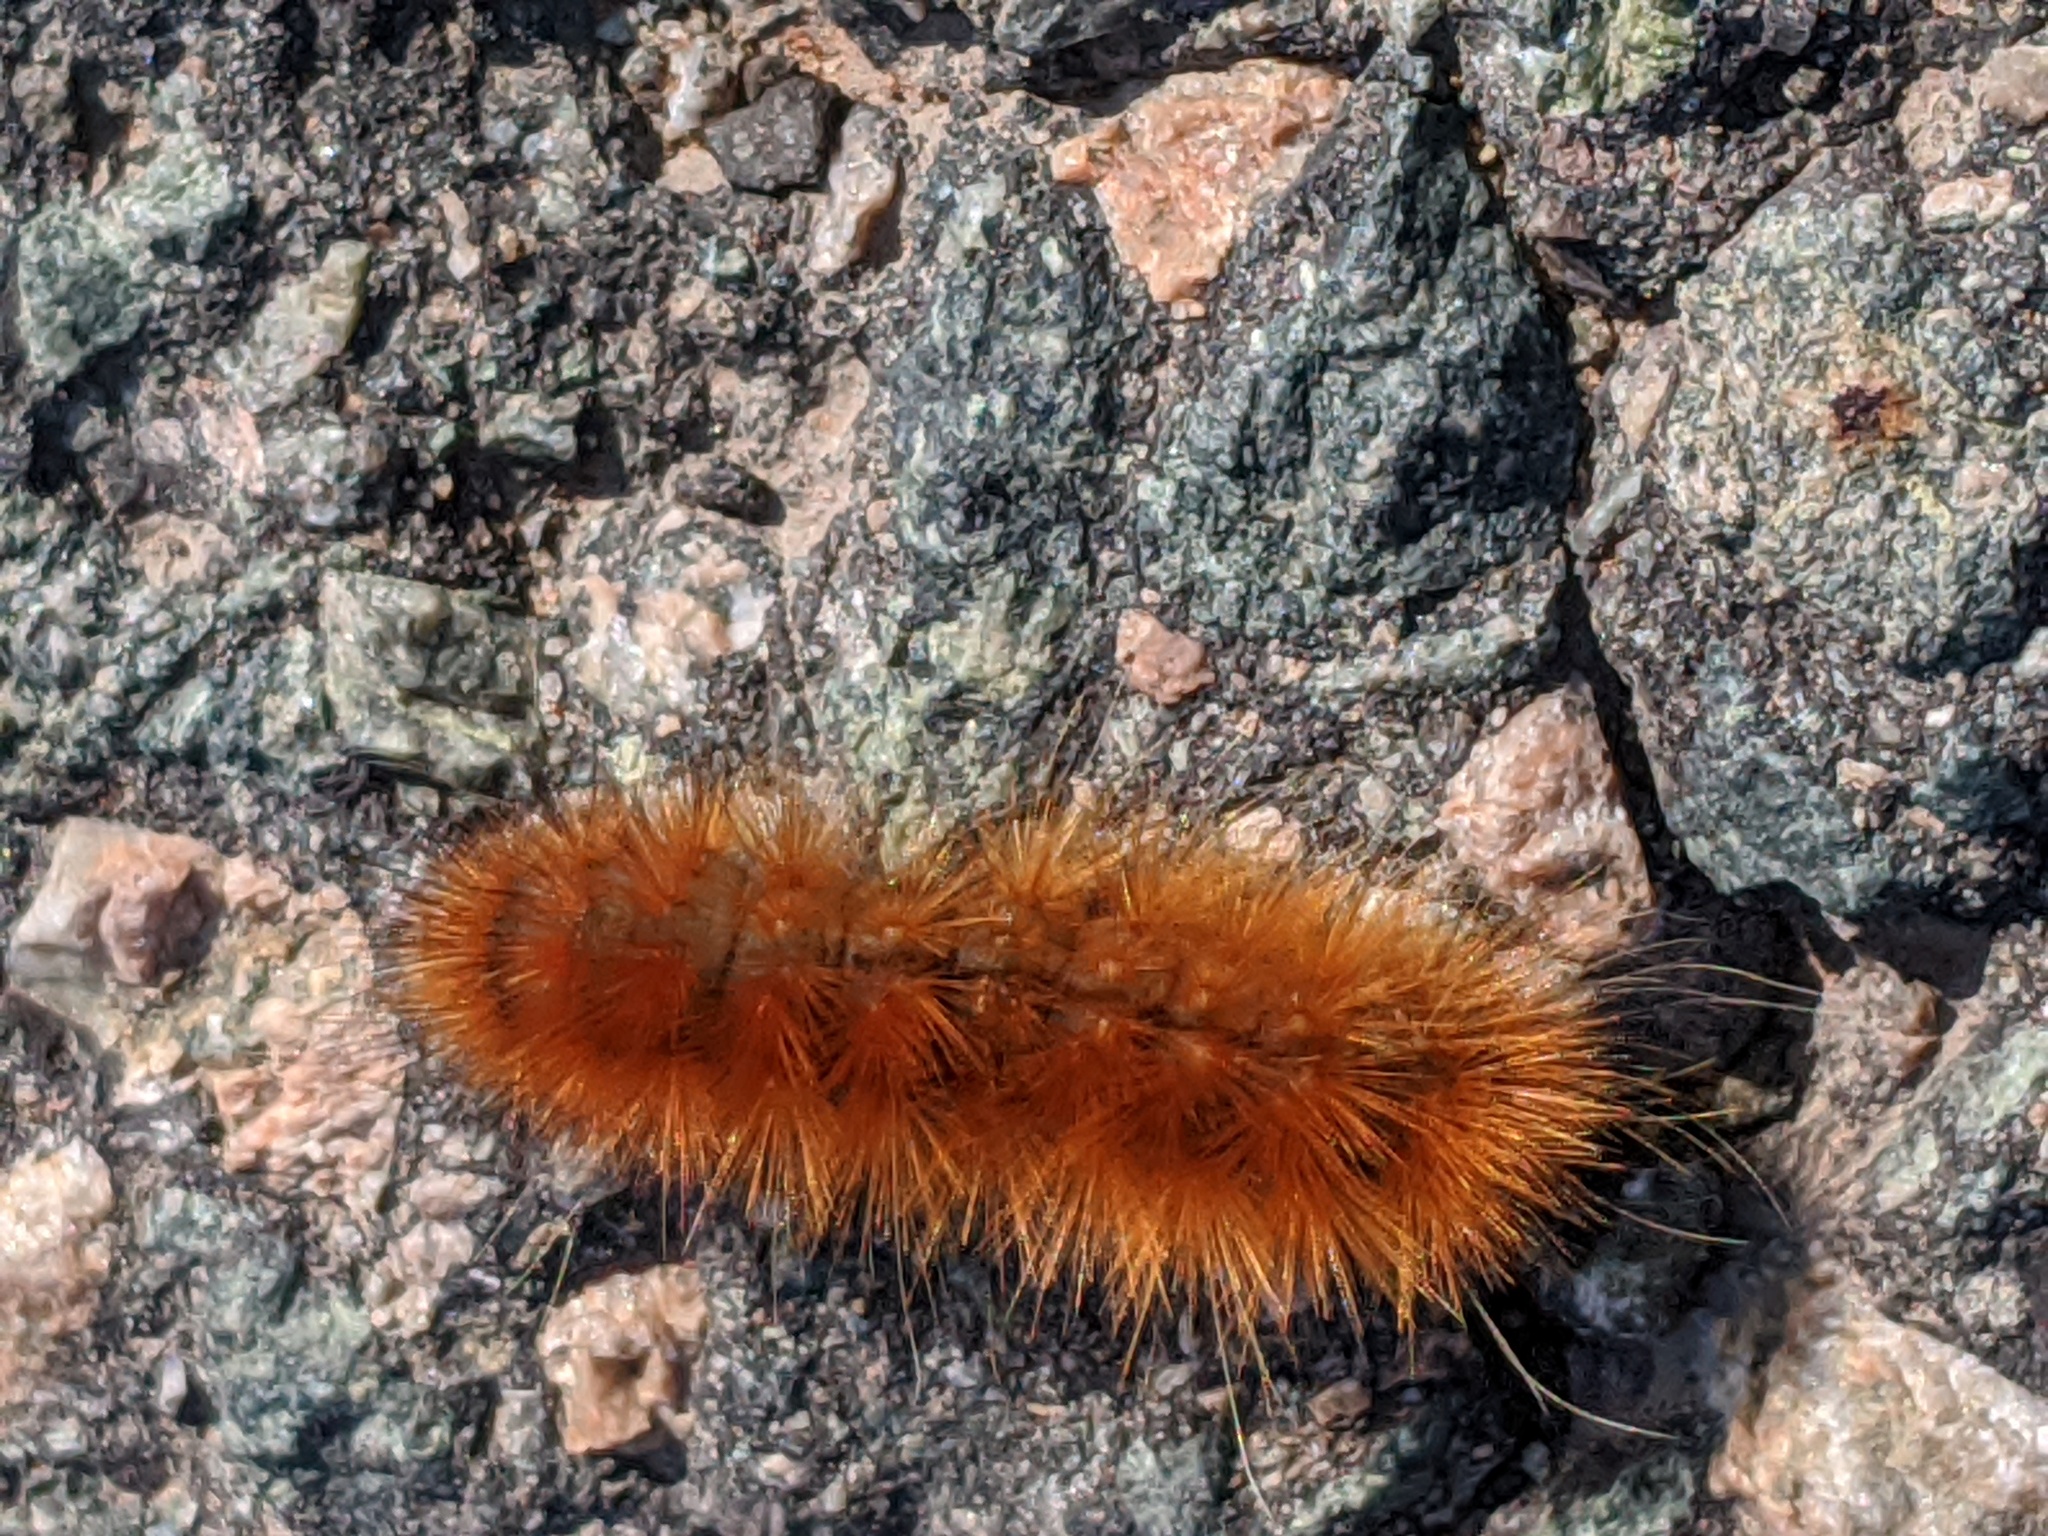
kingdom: Animalia
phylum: Arthropoda
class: Insecta
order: Lepidoptera
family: Erebidae
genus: Spilosoma
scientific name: Spilosoma virginica
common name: Virginia tiger moth
